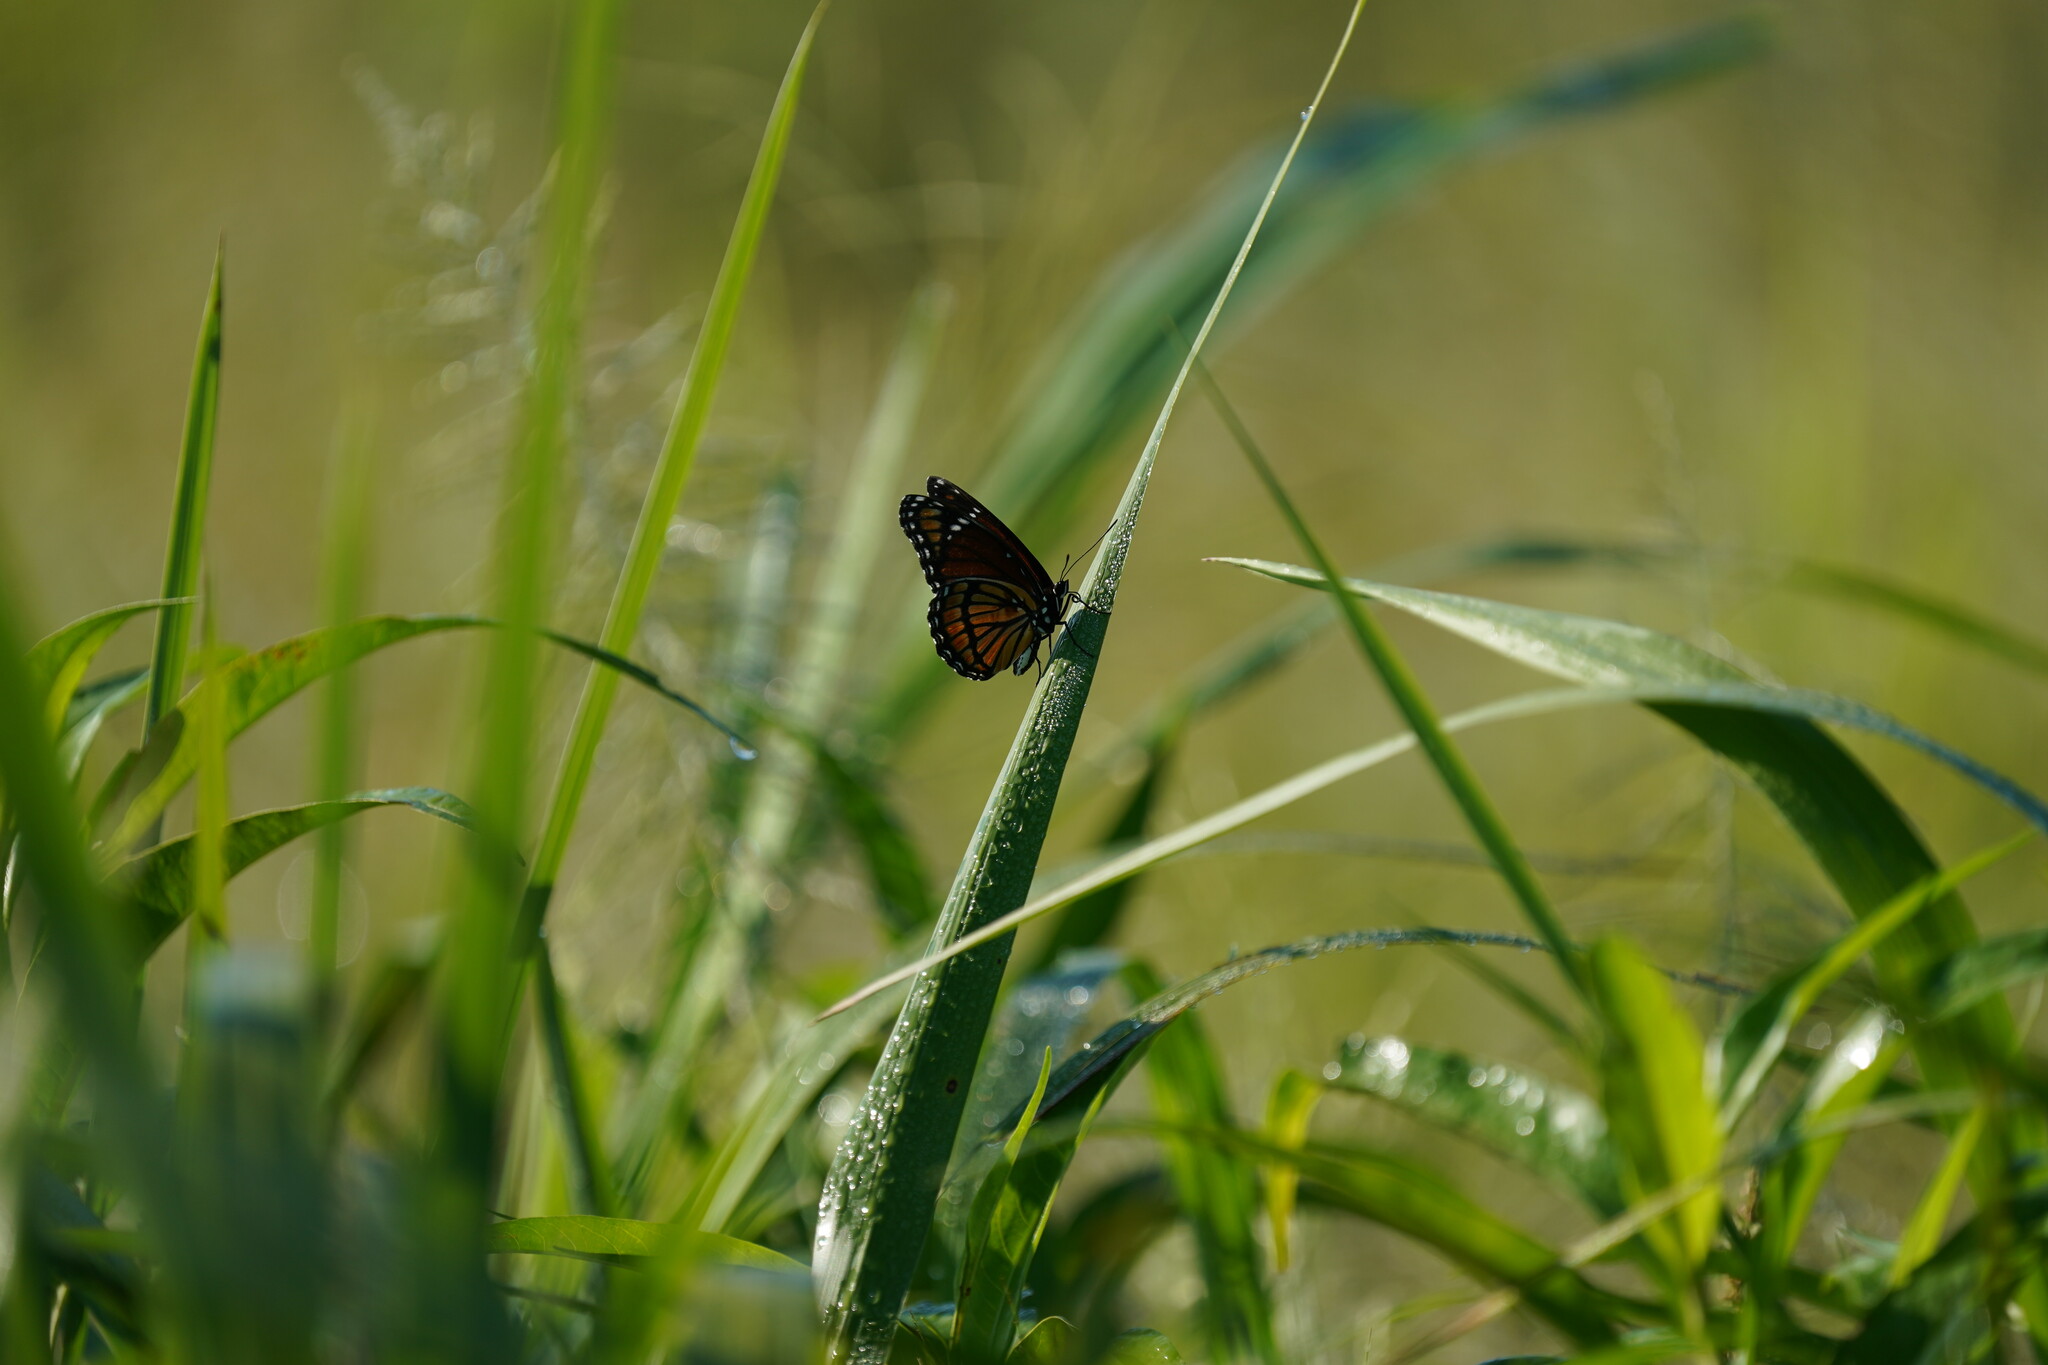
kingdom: Animalia
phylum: Arthropoda
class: Insecta
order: Lepidoptera
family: Nymphalidae
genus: Limenitis
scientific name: Limenitis archippus
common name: Viceroy
